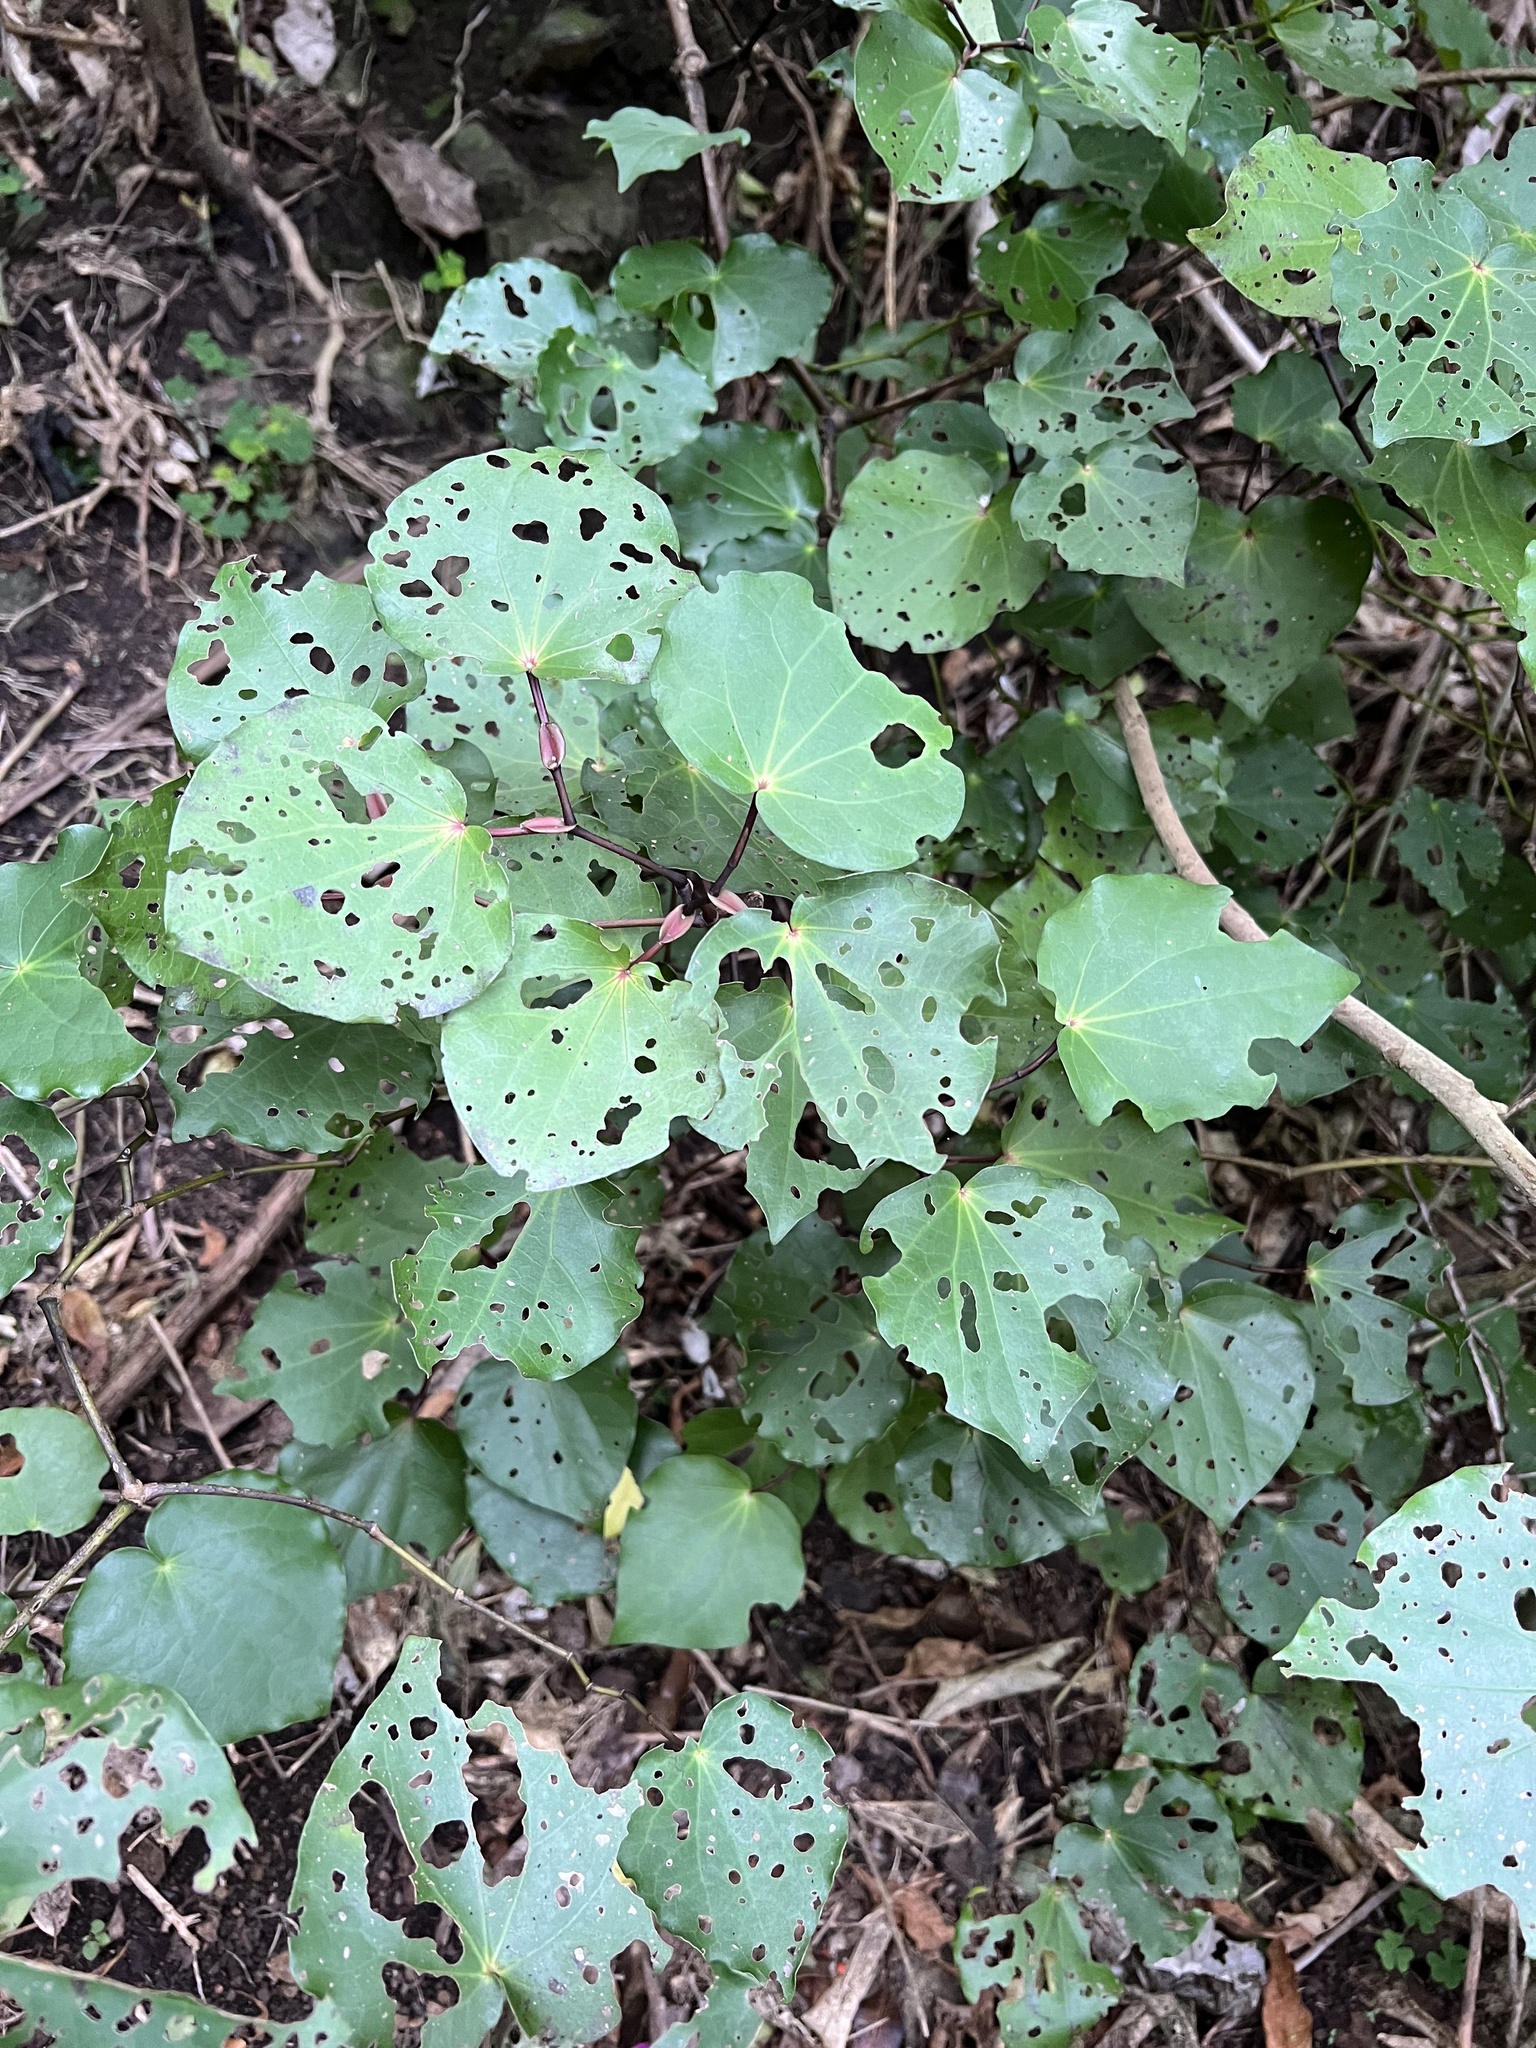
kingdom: Plantae
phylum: Tracheophyta
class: Magnoliopsida
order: Piperales
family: Piperaceae
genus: Macropiper
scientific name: Macropiper excelsum
